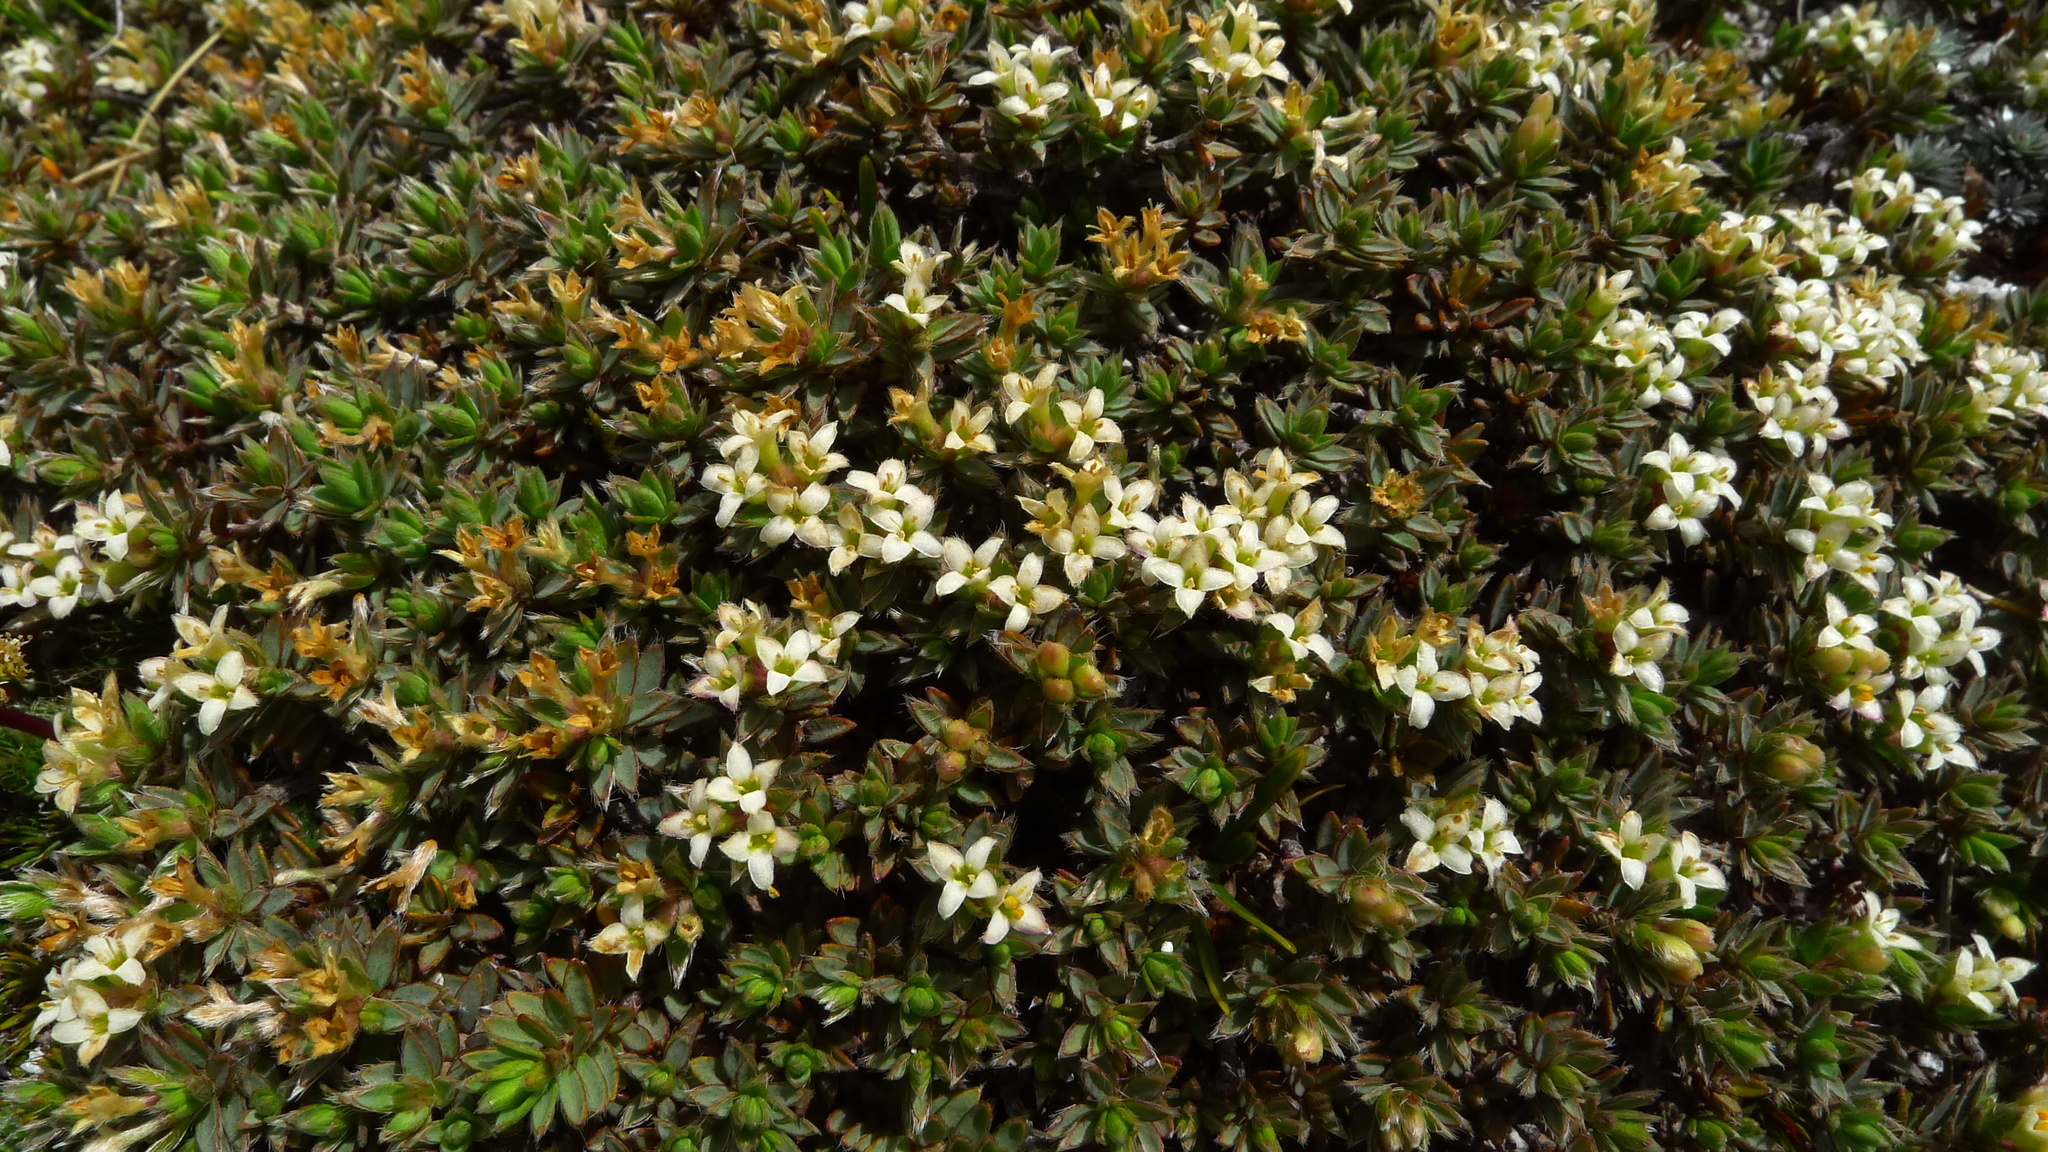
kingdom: Plantae
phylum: Tracheophyta
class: Magnoliopsida
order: Malvales
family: Thymelaeaceae
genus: Pimelea
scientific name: Pimelea oreophila
